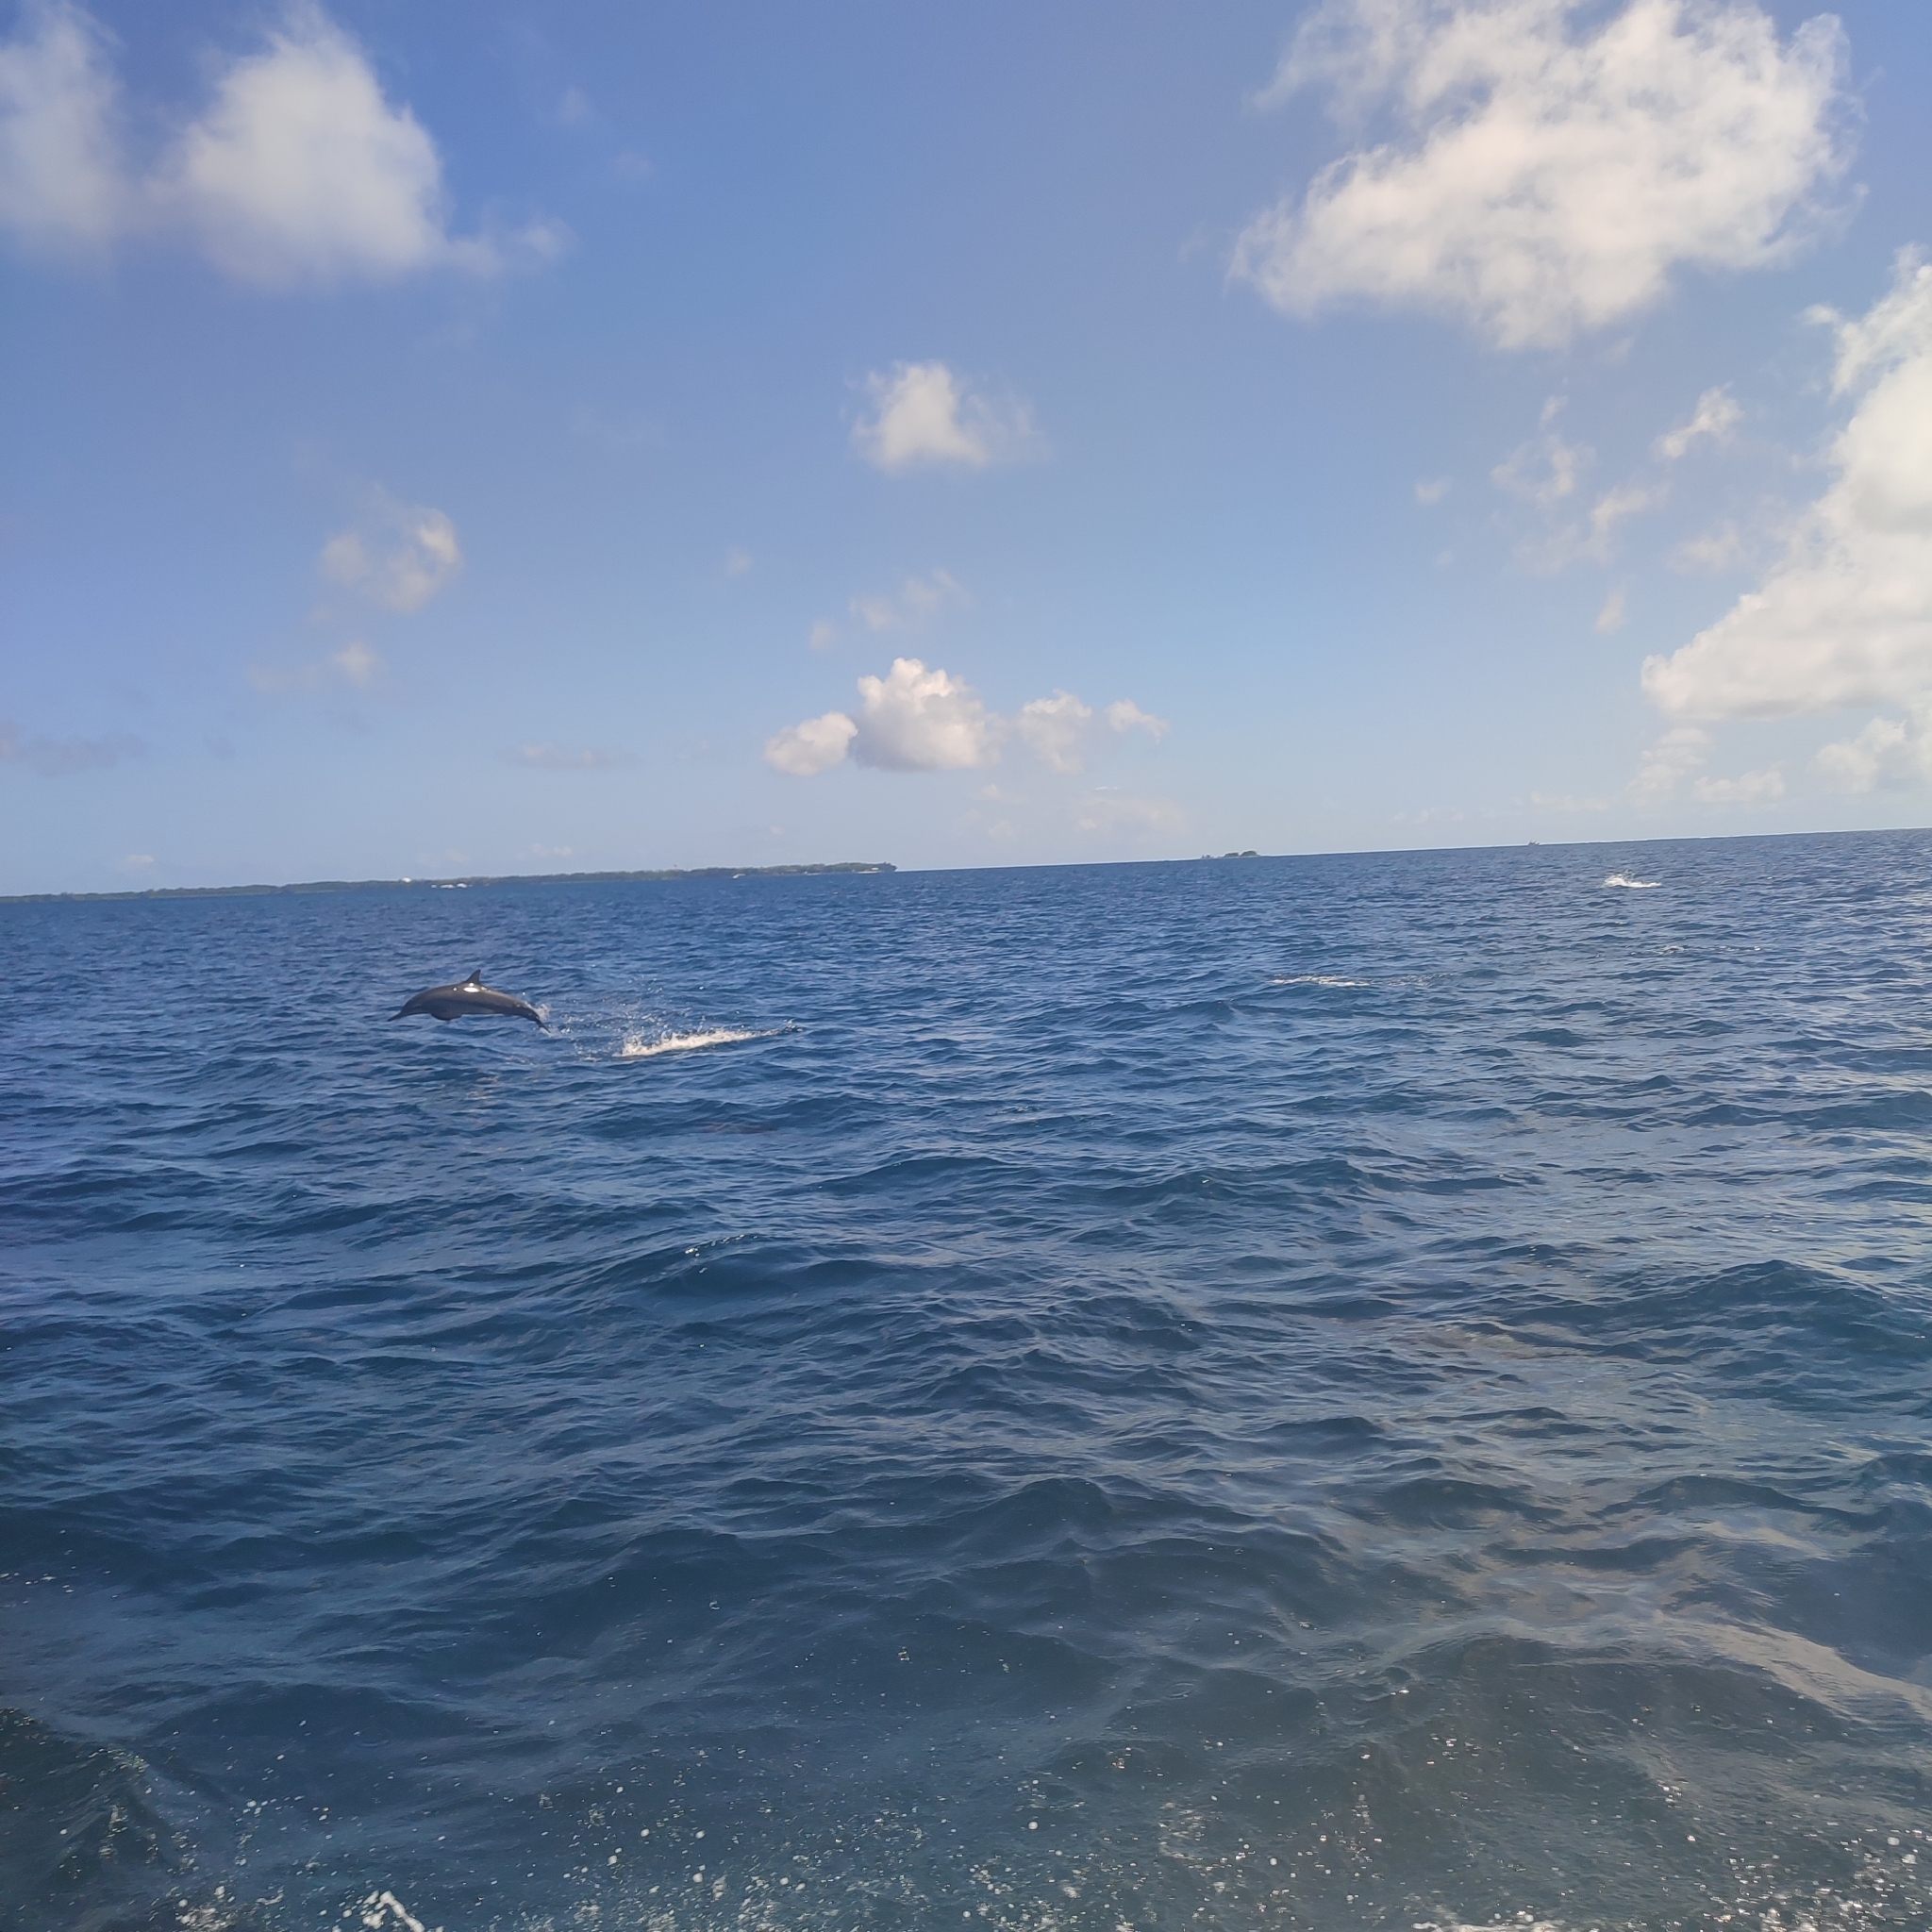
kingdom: Animalia
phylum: Chordata
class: Mammalia
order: Cetacea
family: Delphinidae
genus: Stenella
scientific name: Stenella longirostris
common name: Spinner dolphin
